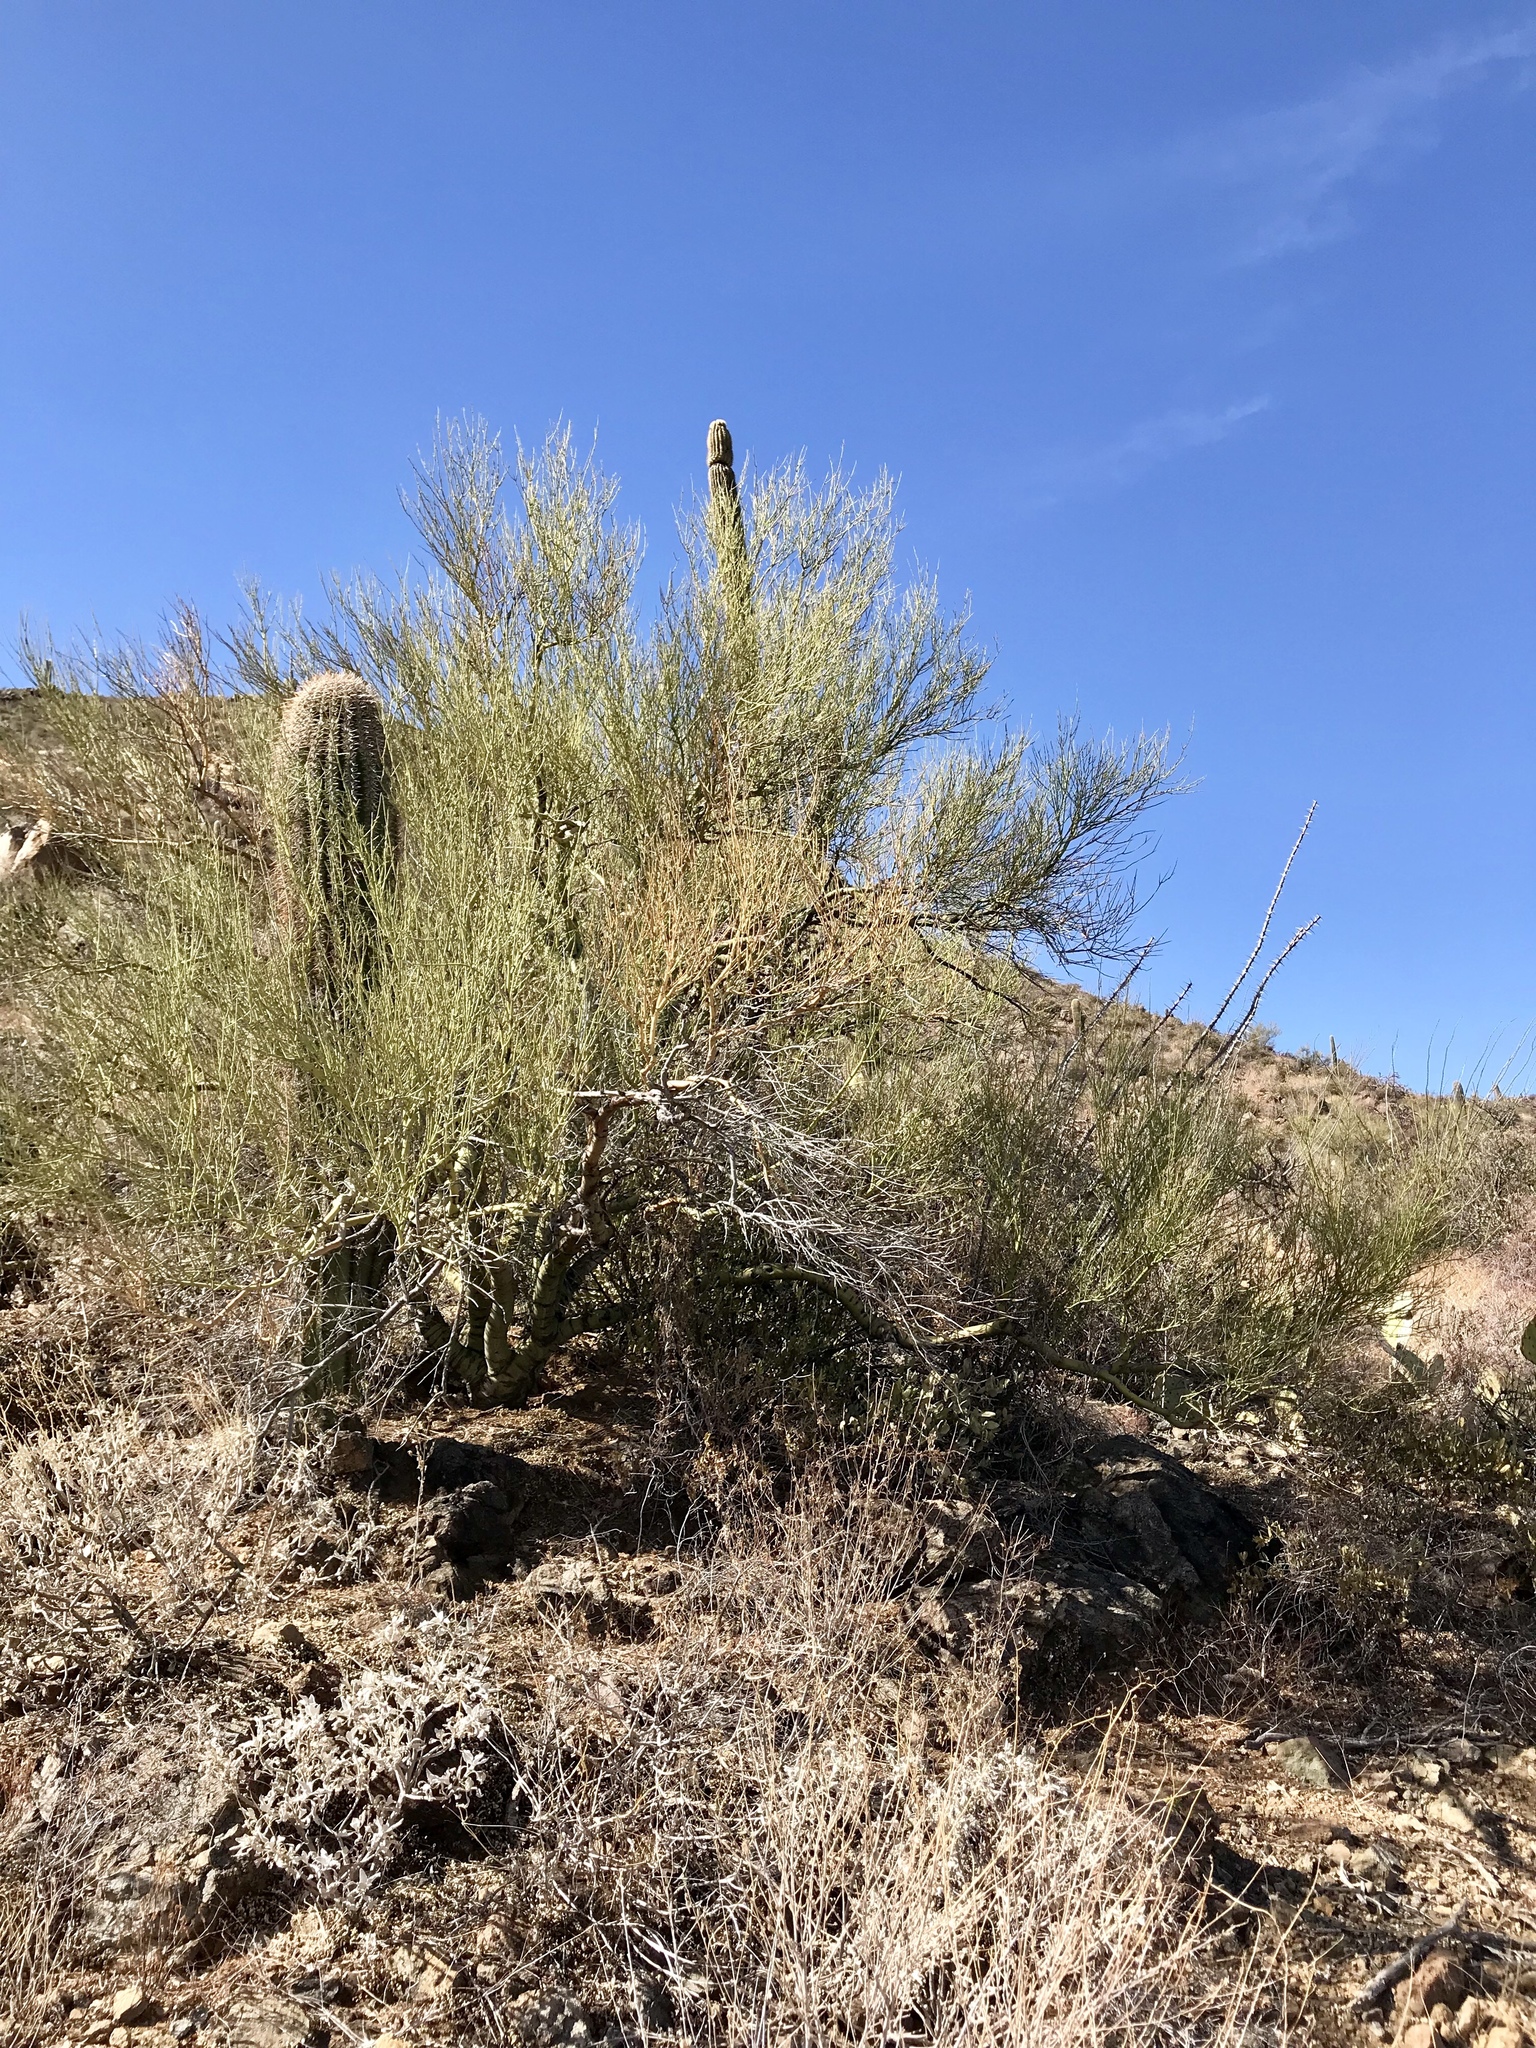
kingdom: Plantae
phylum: Tracheophyta
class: Magnoliopsida
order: Fabales
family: Fabaceae
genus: Parkinsonia
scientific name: Parkinsonia microphylla
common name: Yellow paloverde
